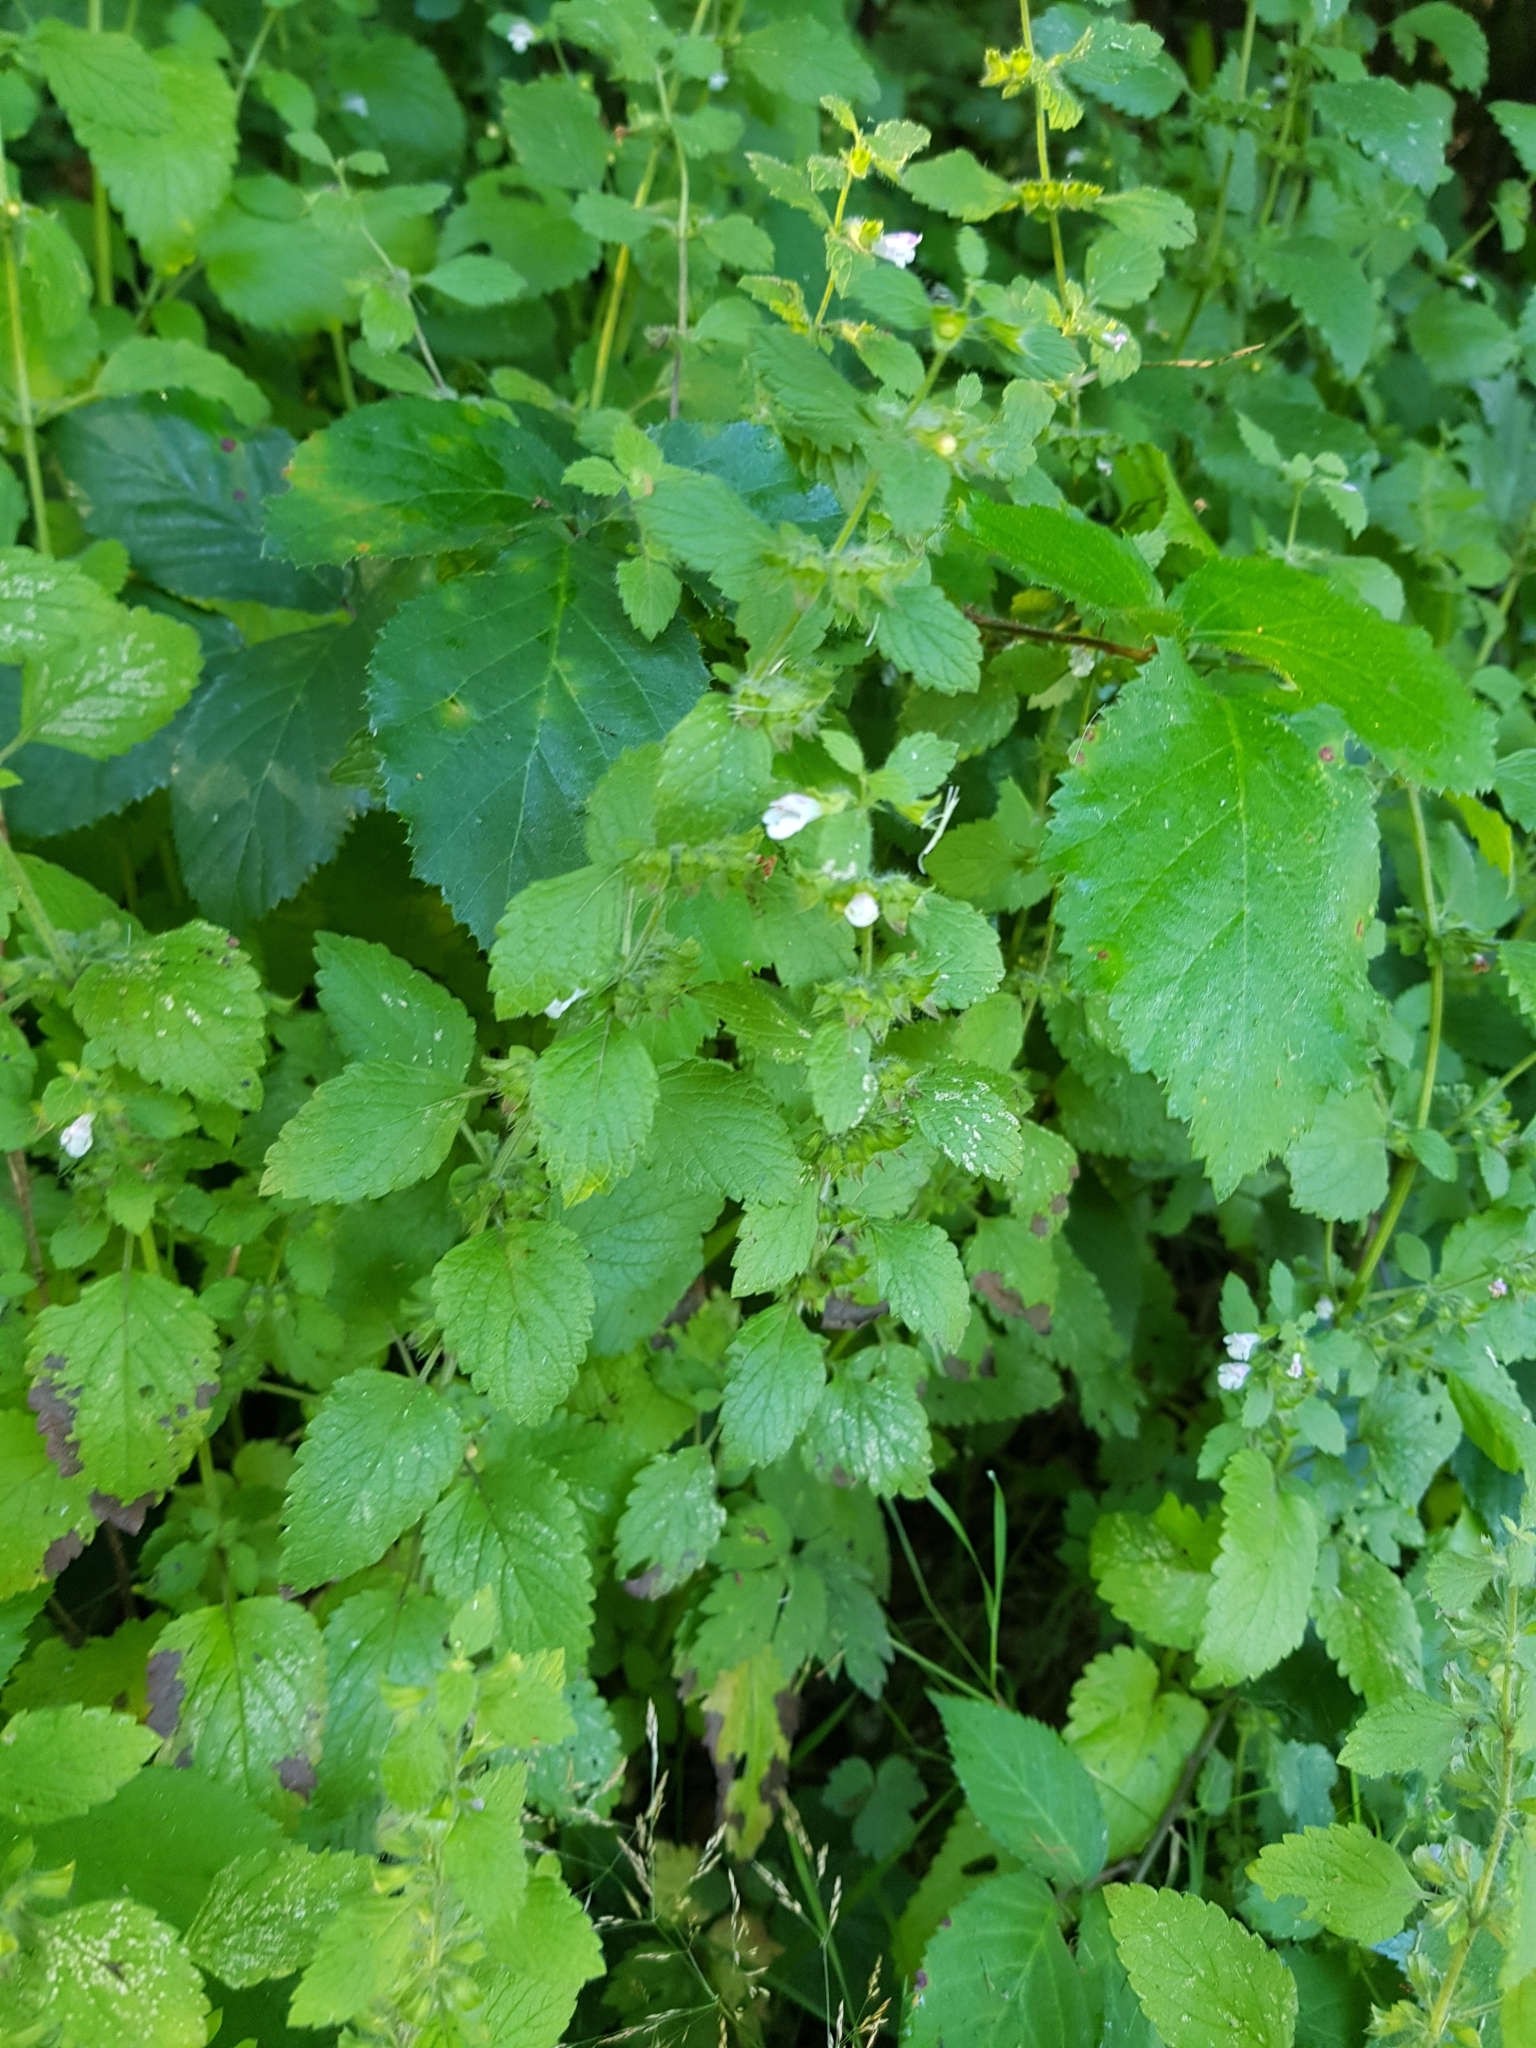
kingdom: Plantae
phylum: Tracheophyta
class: Magnoliopsida
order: Lamiales
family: Lamiaceae
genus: Melissa
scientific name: Melissa officinalis
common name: Balm
